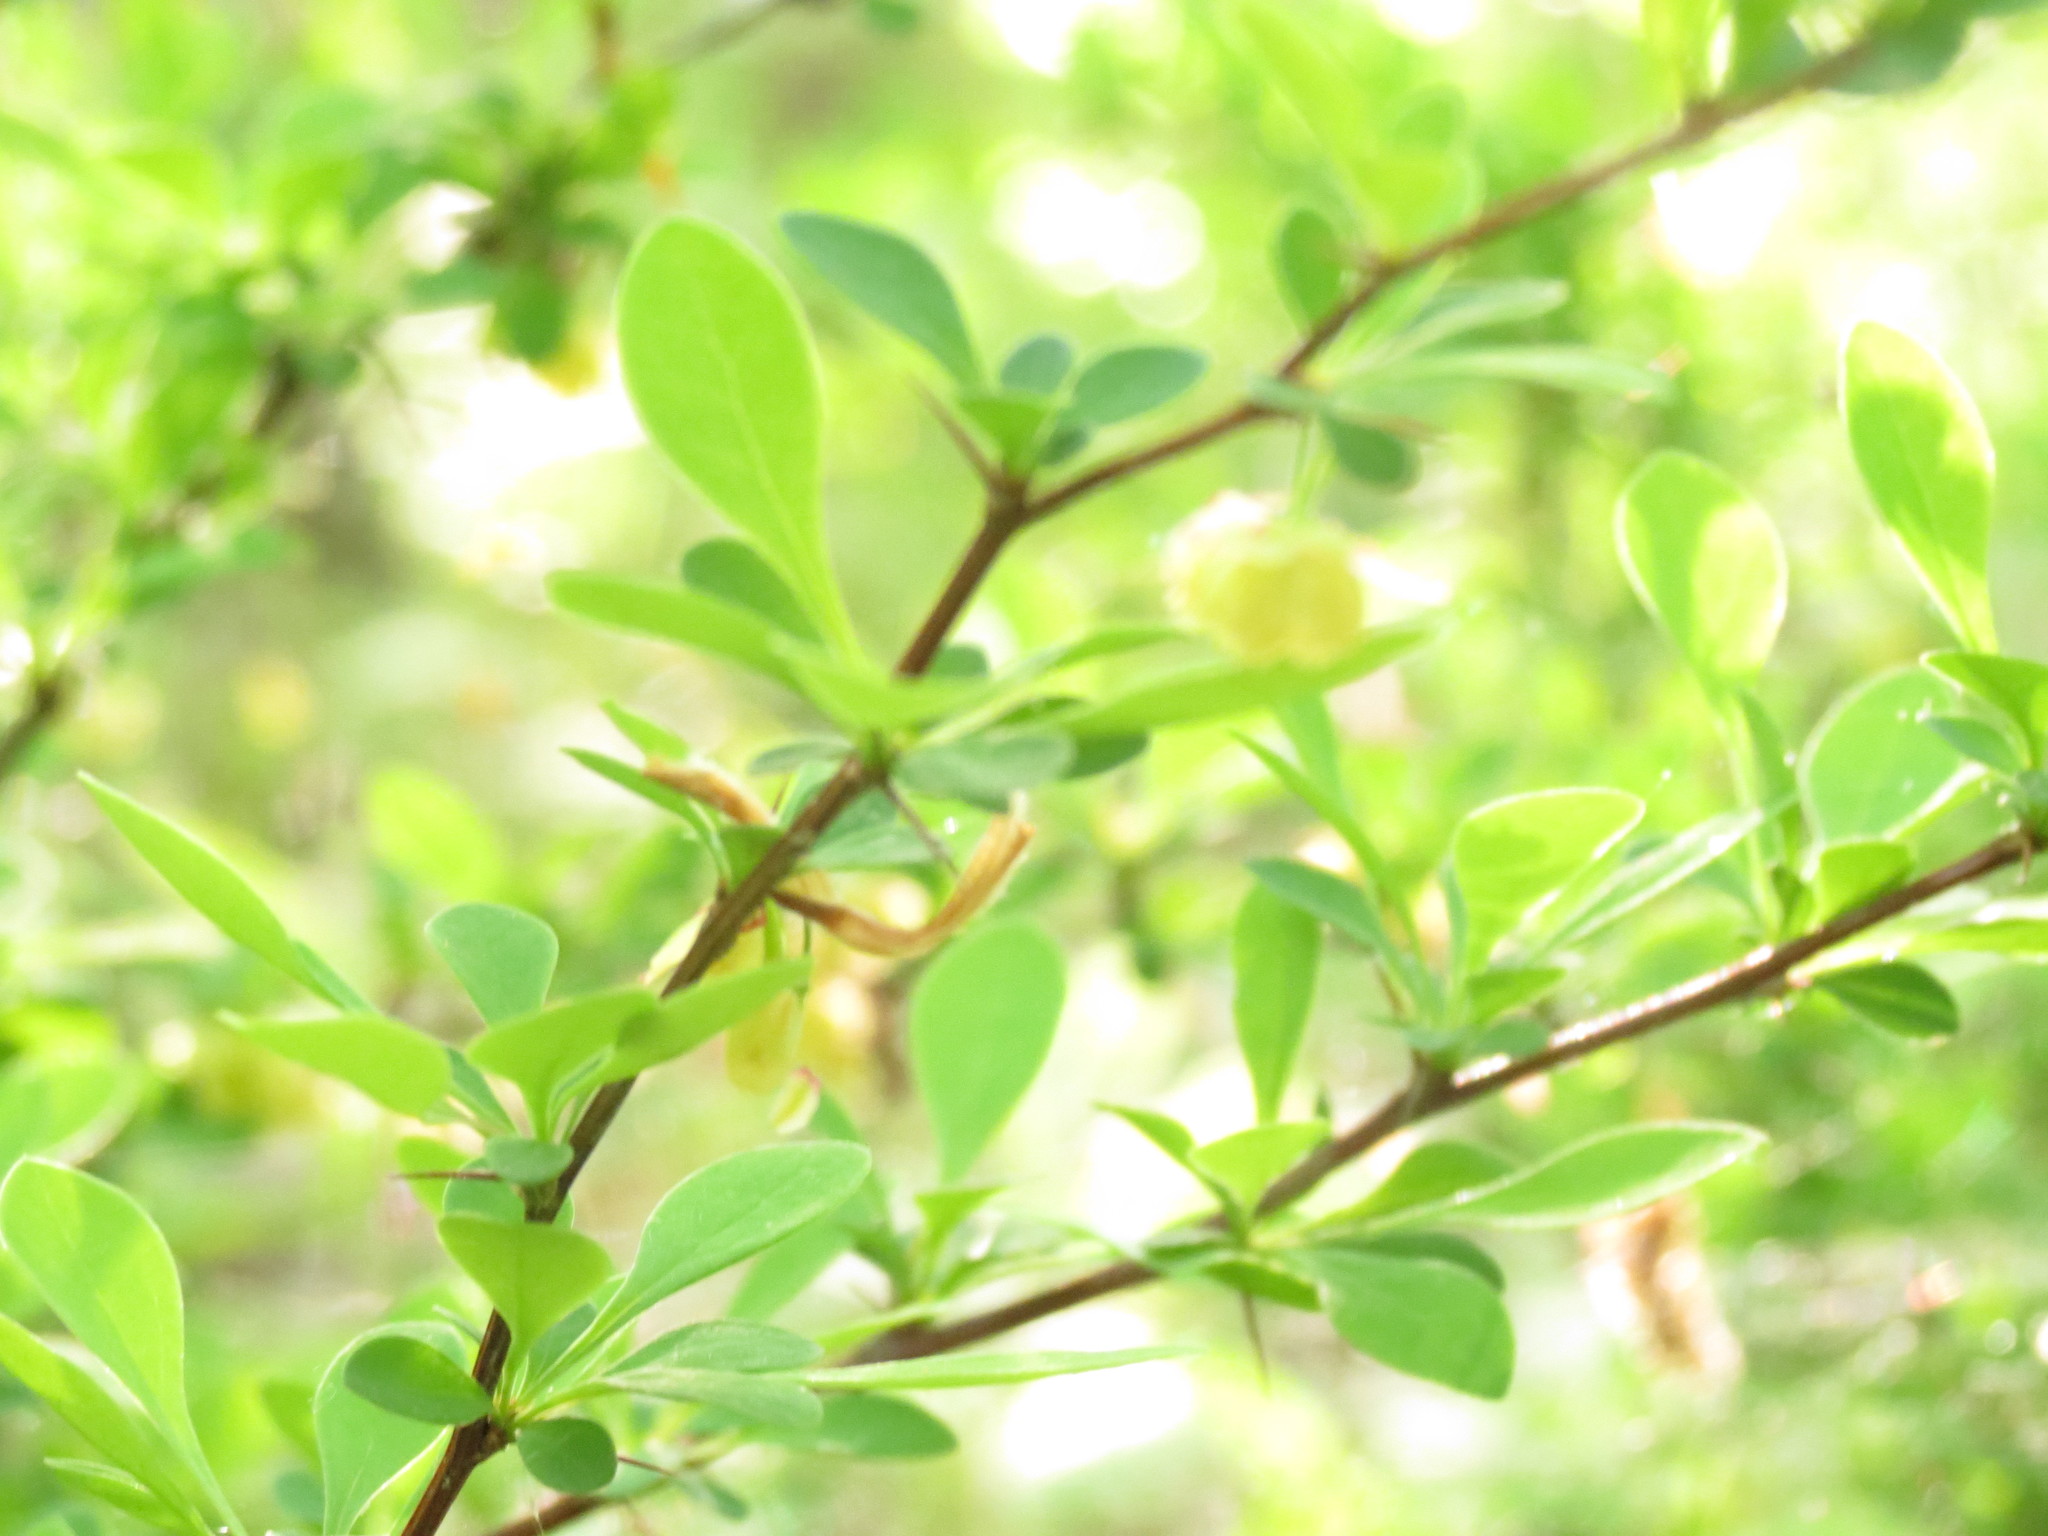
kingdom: Plantae
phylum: Tracheophyta
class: Magnoliopsida
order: Ranunculales
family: Berberidaceae
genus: Berberis
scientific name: Berberis thunbergii
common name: Japanese barberry
